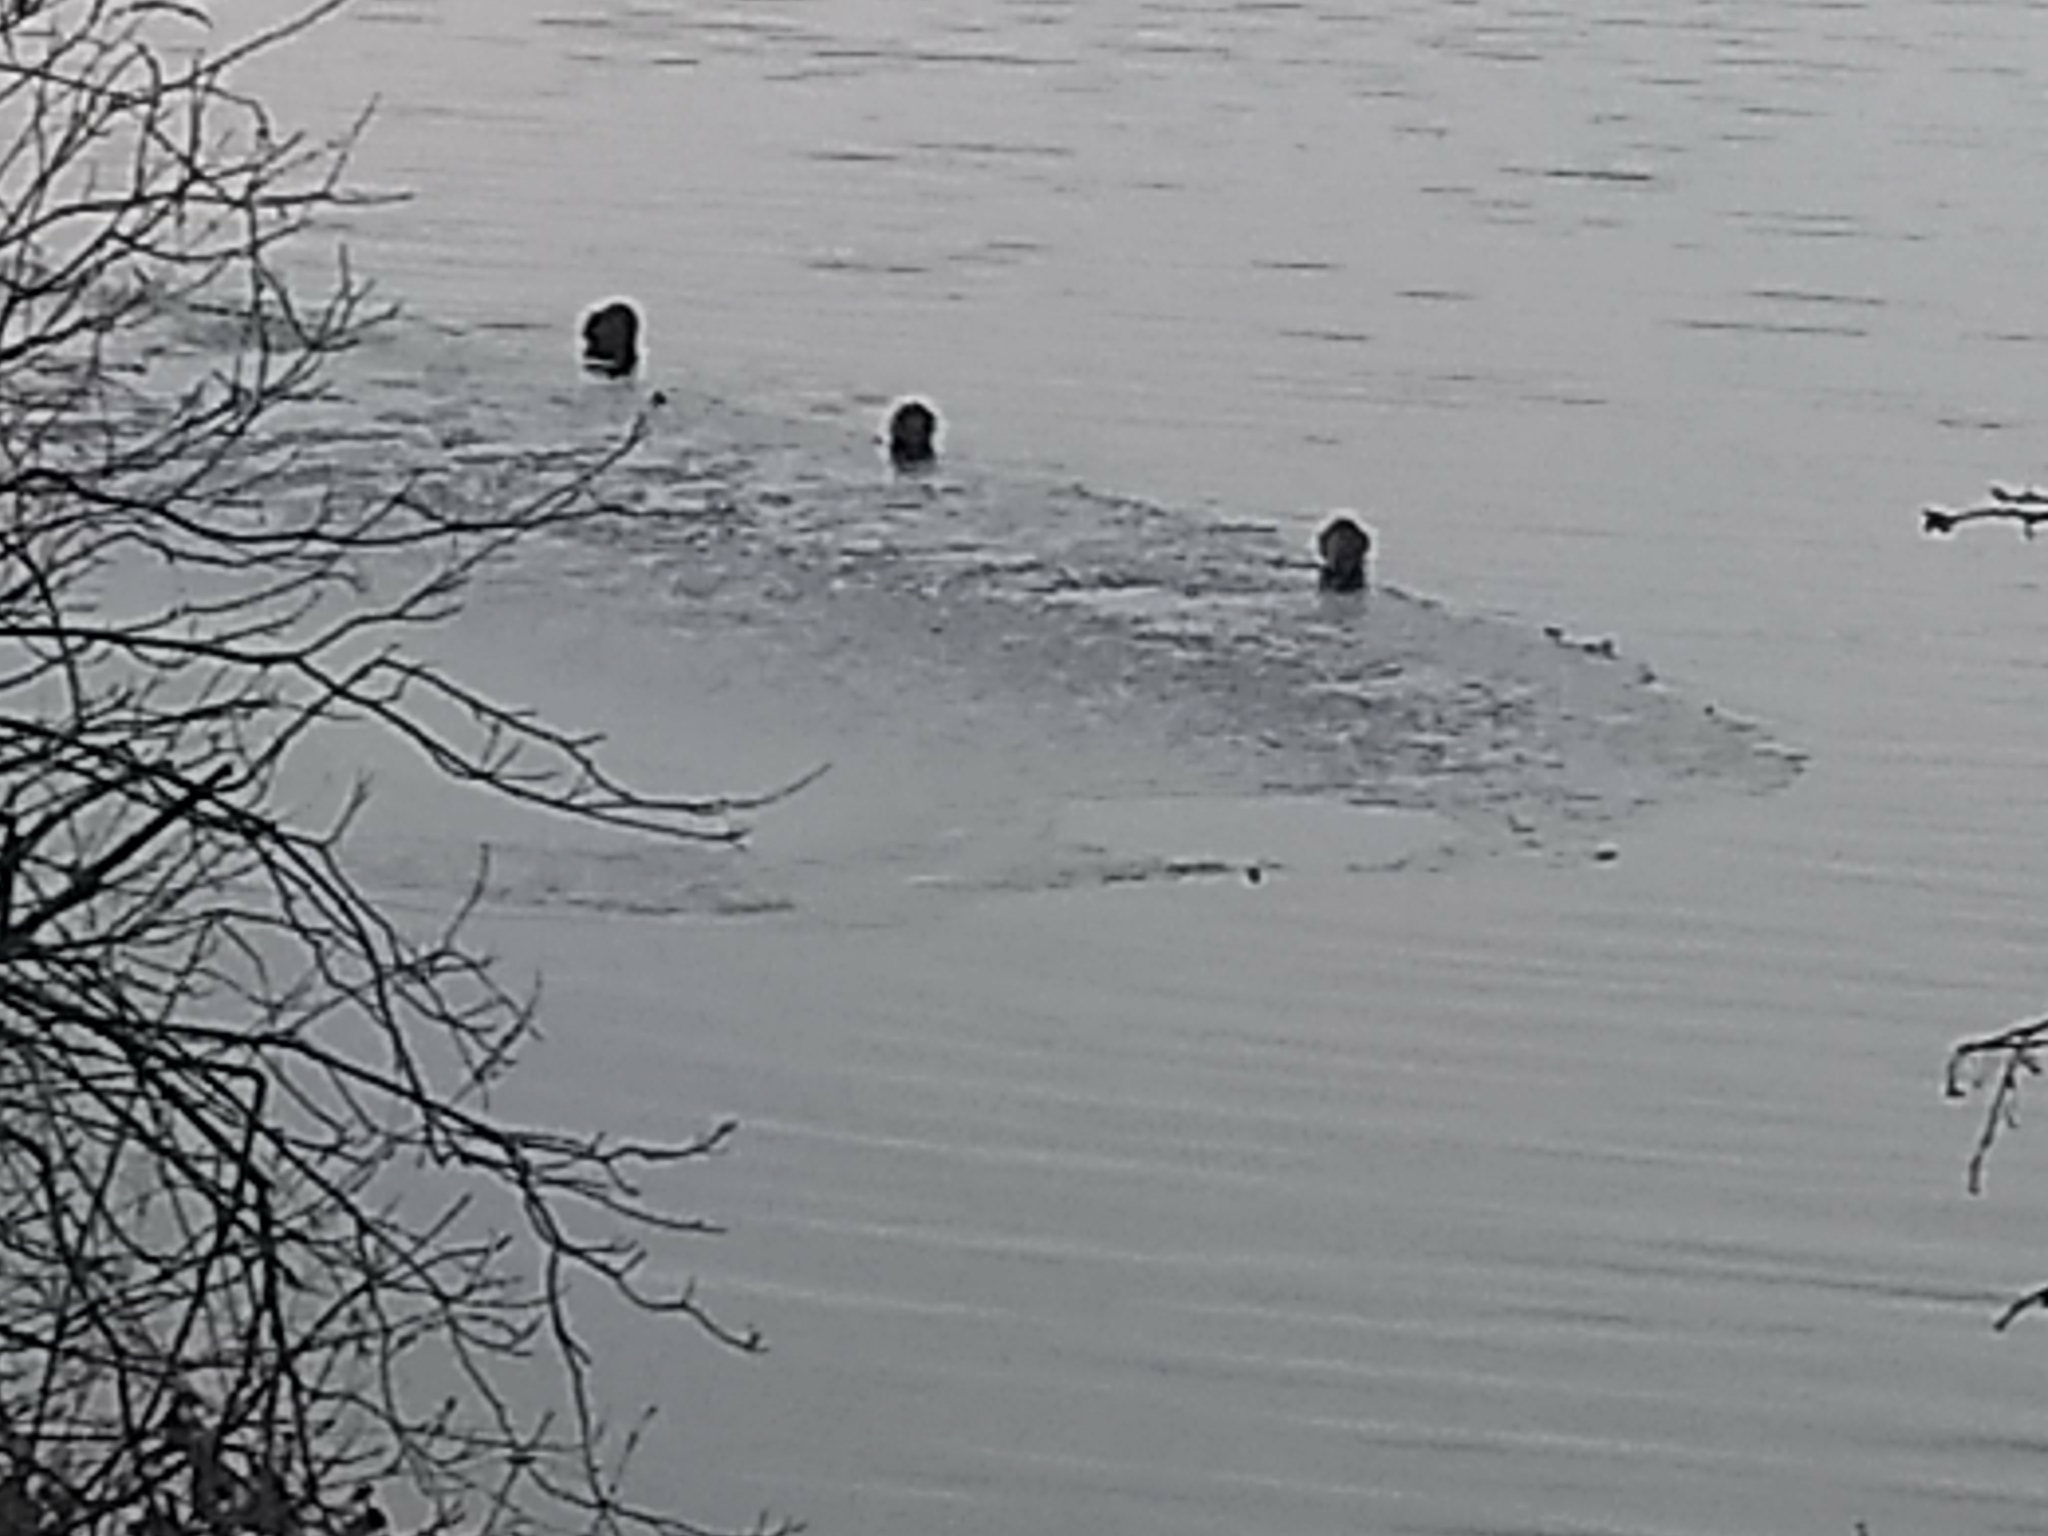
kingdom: Animalia
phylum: Chordata
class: Mammalia
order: Rodentia
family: Cricetidae
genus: Ondatra
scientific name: Ondatra zibethicus
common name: Muskrat
